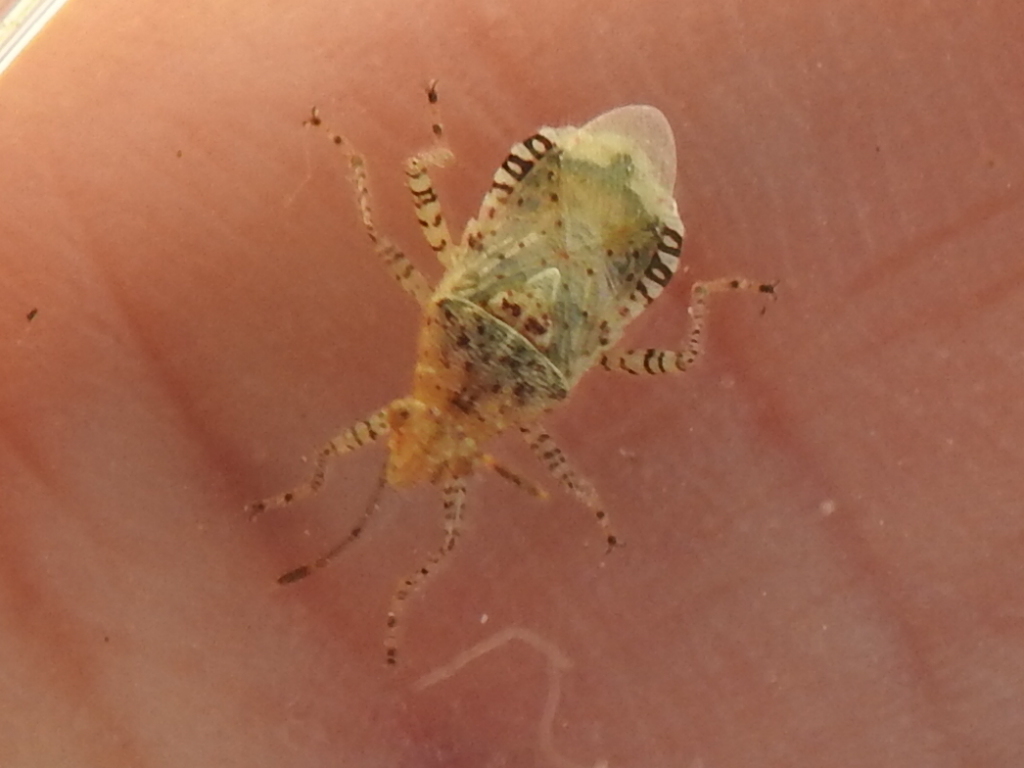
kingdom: Animalia
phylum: Arthropoda
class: Insecta
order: Hemiptera
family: Rhopalidae
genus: Niesthrea
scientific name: Niesthrea louisianica
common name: Scentless plant bug
